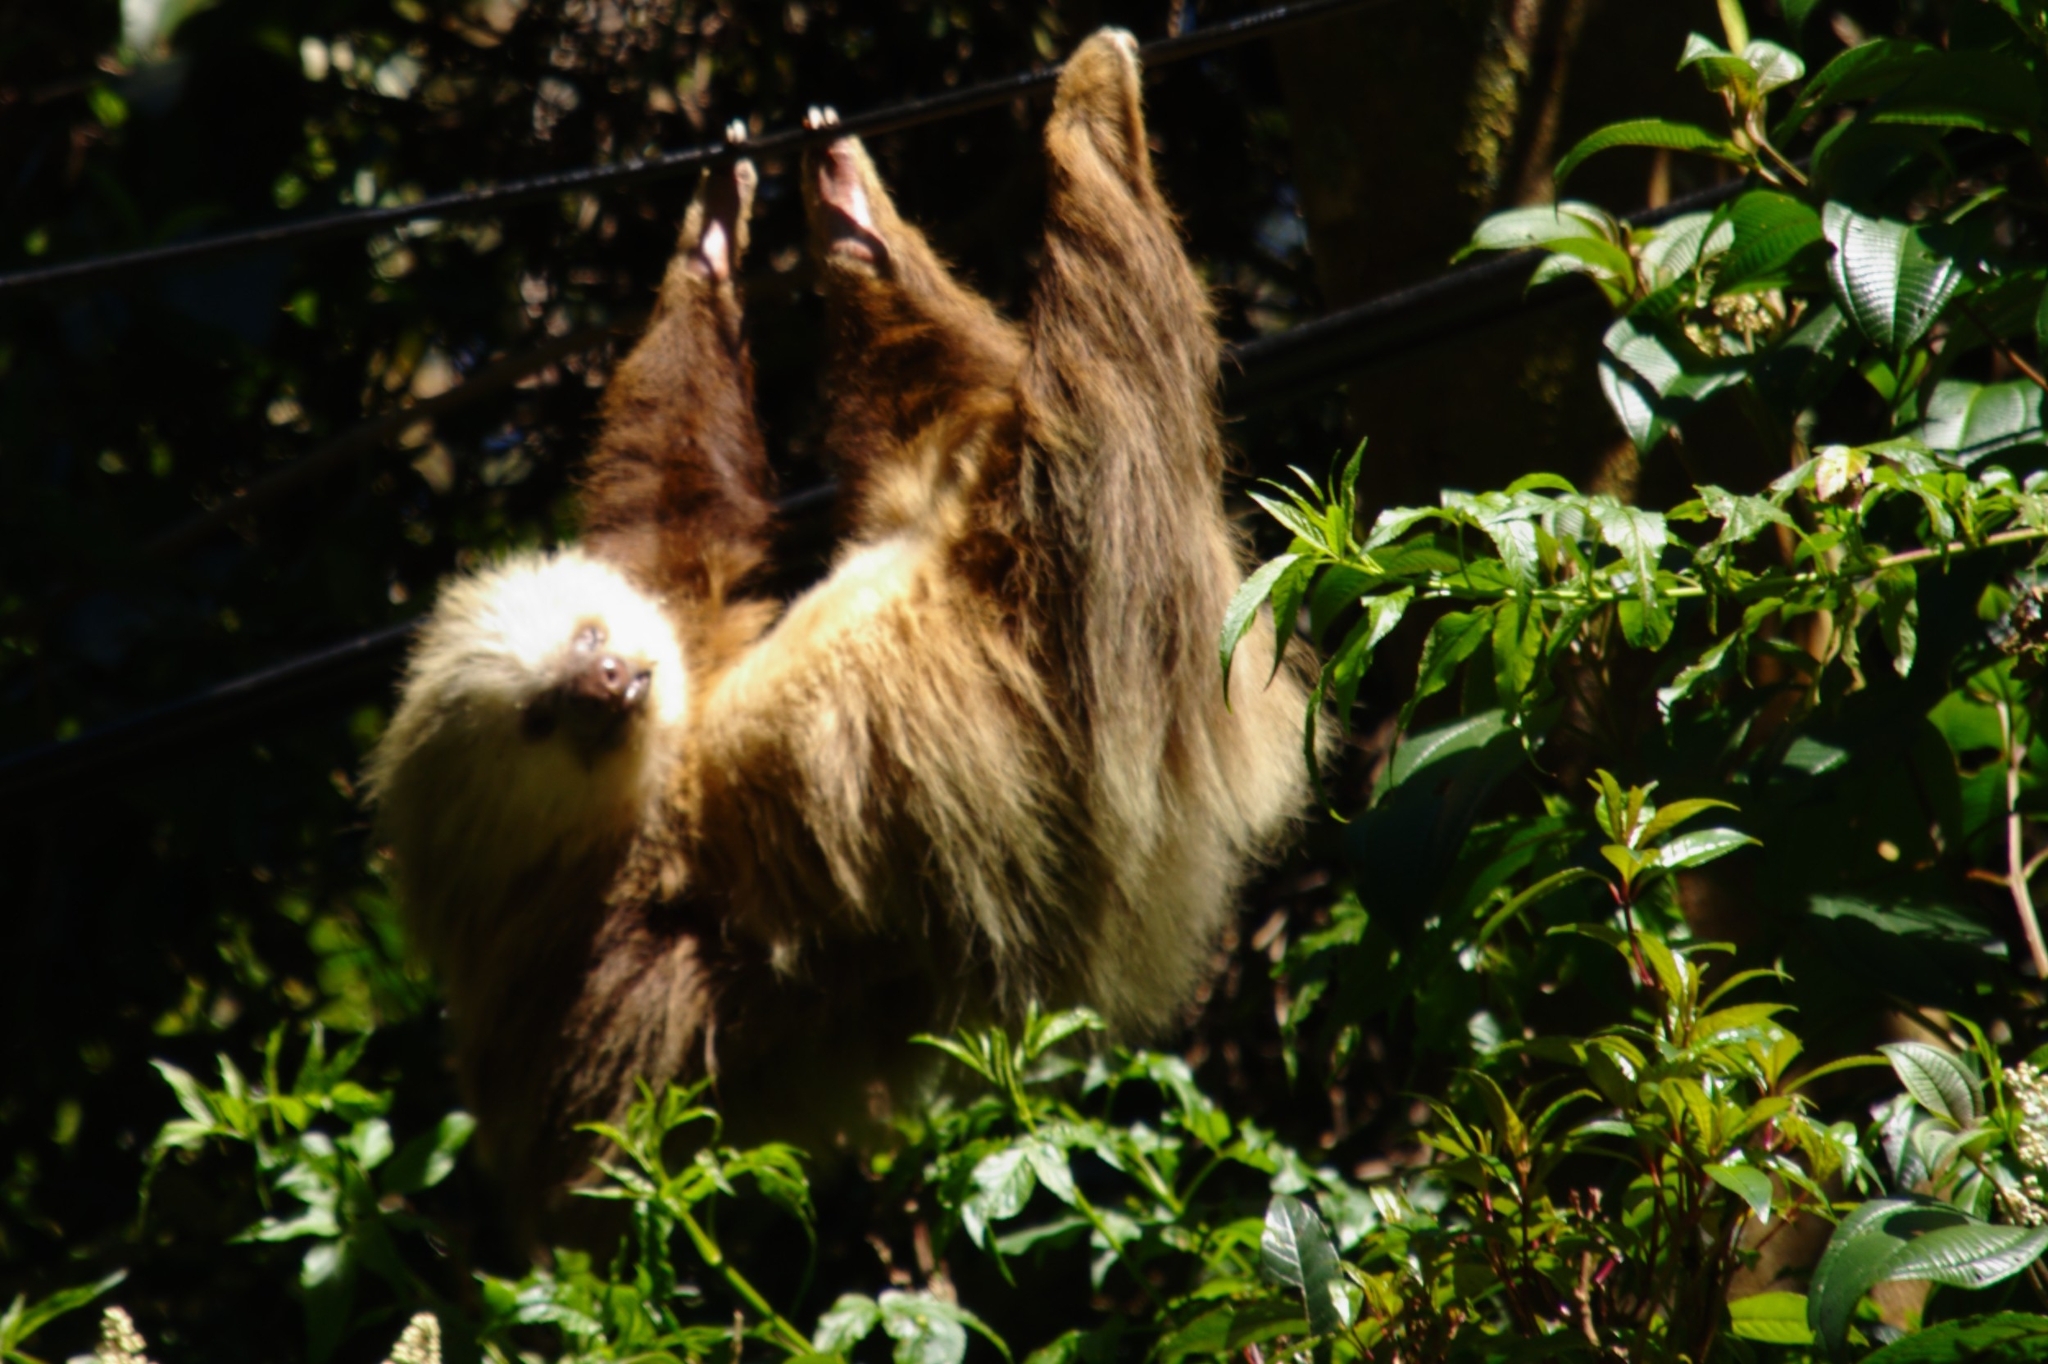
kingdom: Animalia
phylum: Chordata
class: Mammalia
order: Pilosa
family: Megalonychidae
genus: Choloepus
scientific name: Choloepus hoffmanni
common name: Hoffmann's two-toed sloth
